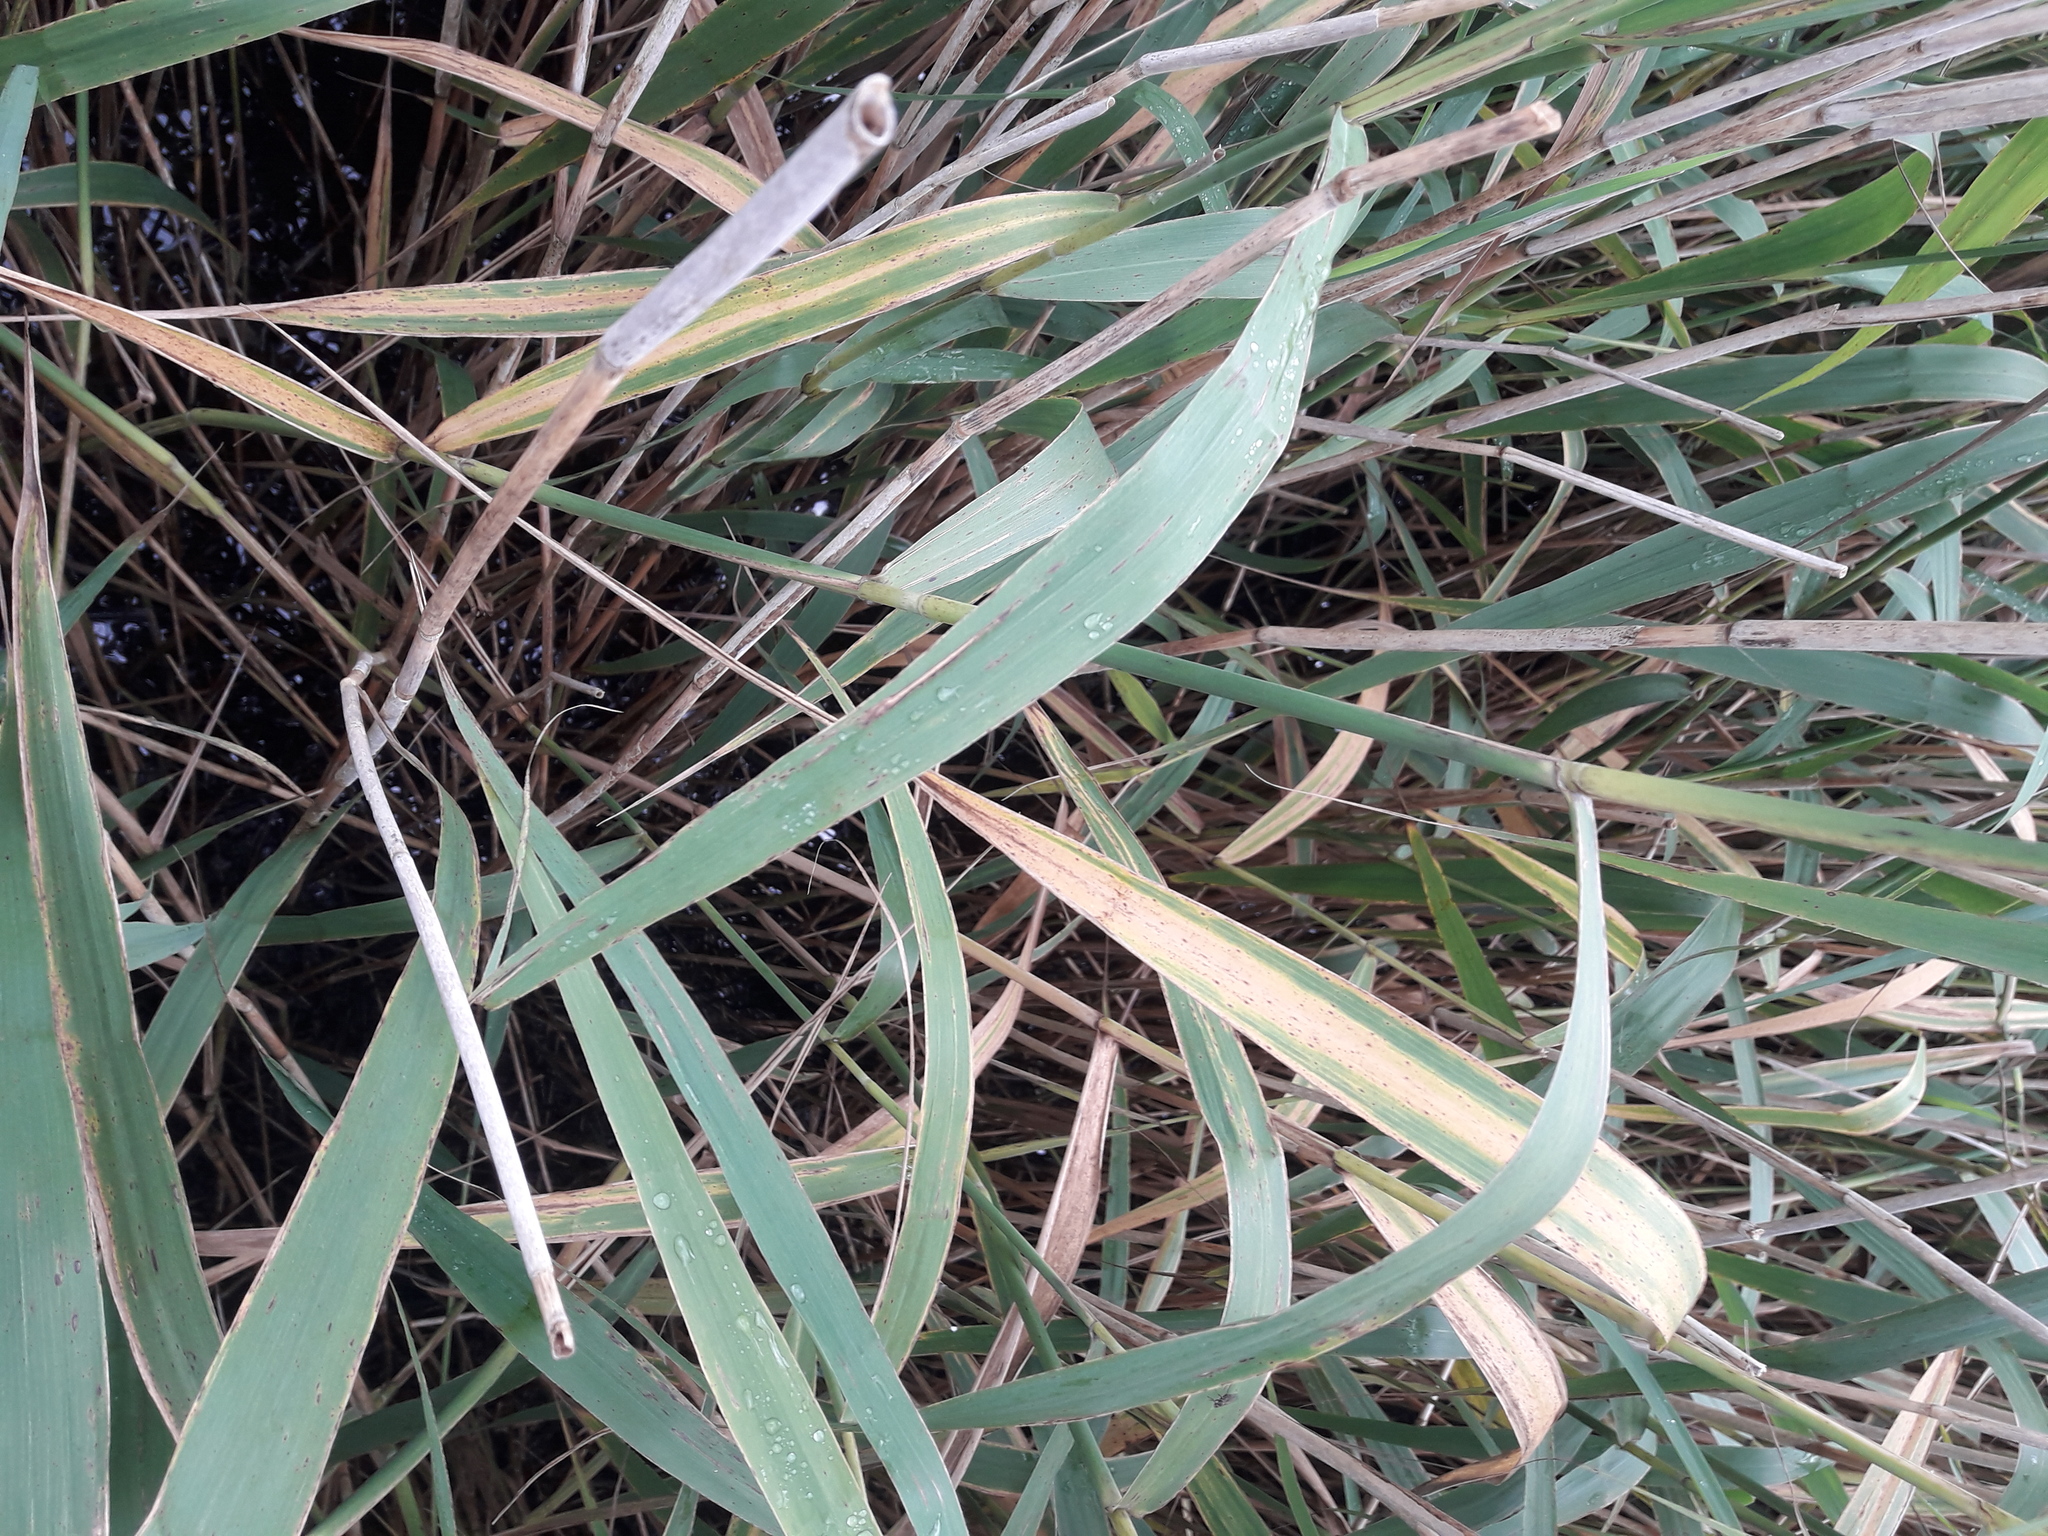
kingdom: Plantae
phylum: Tracheophyta
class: Liliopsida
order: Poales
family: Poaceae
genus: Phragmites
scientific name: Phragmites australis
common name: Common reed
